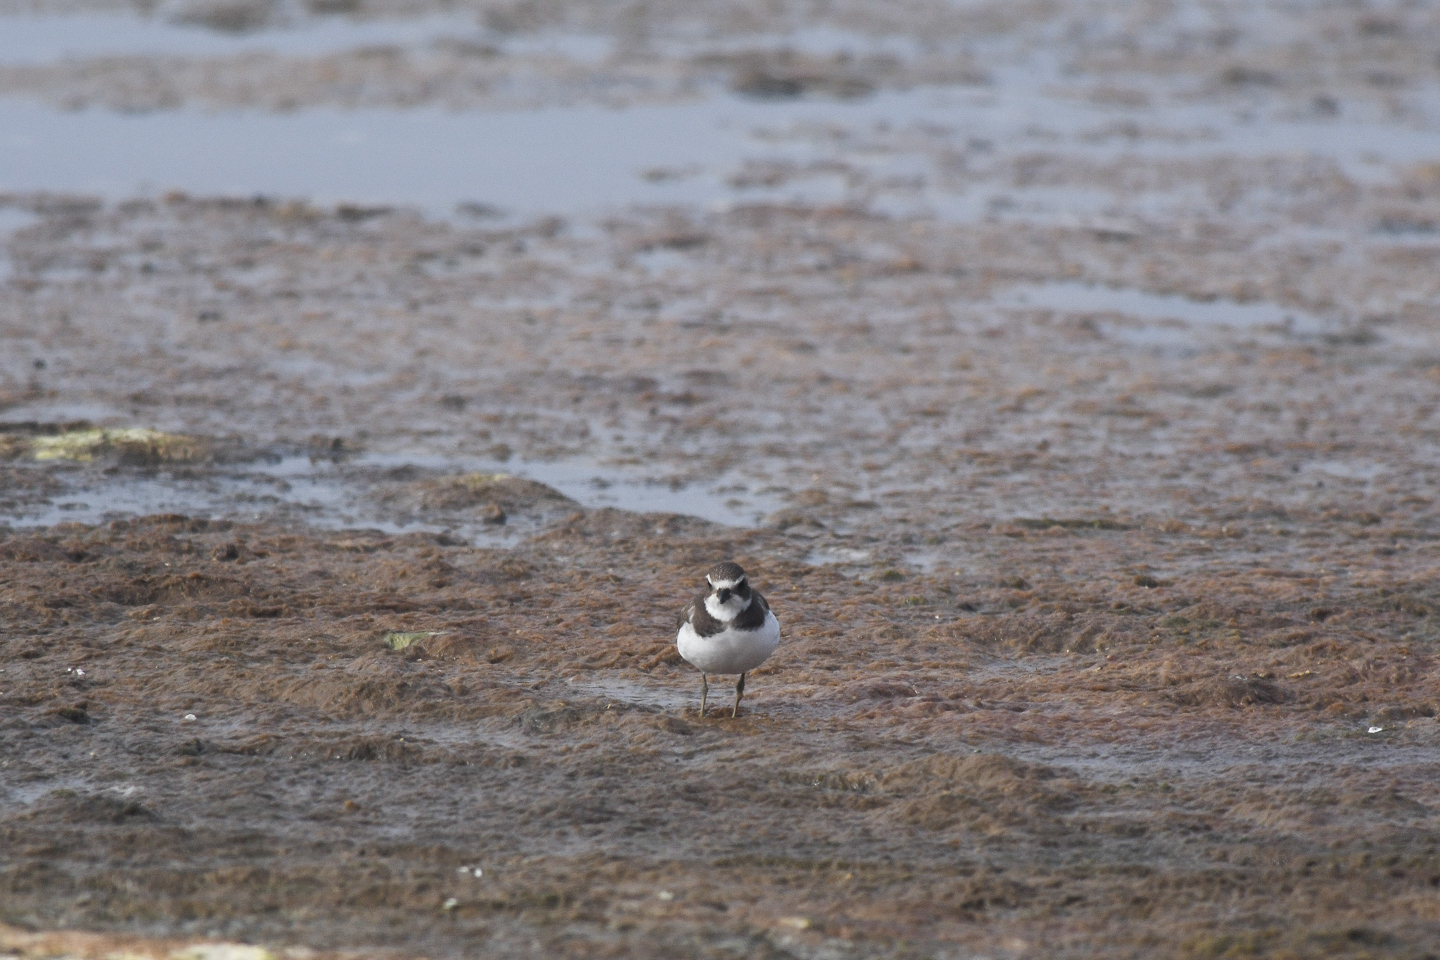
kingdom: Animalia
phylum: Chordata
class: Aves
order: Charadriiformes
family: Charadriidae
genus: Charadrius
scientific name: Charadrius semipalmatus
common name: Semipalmated plover
